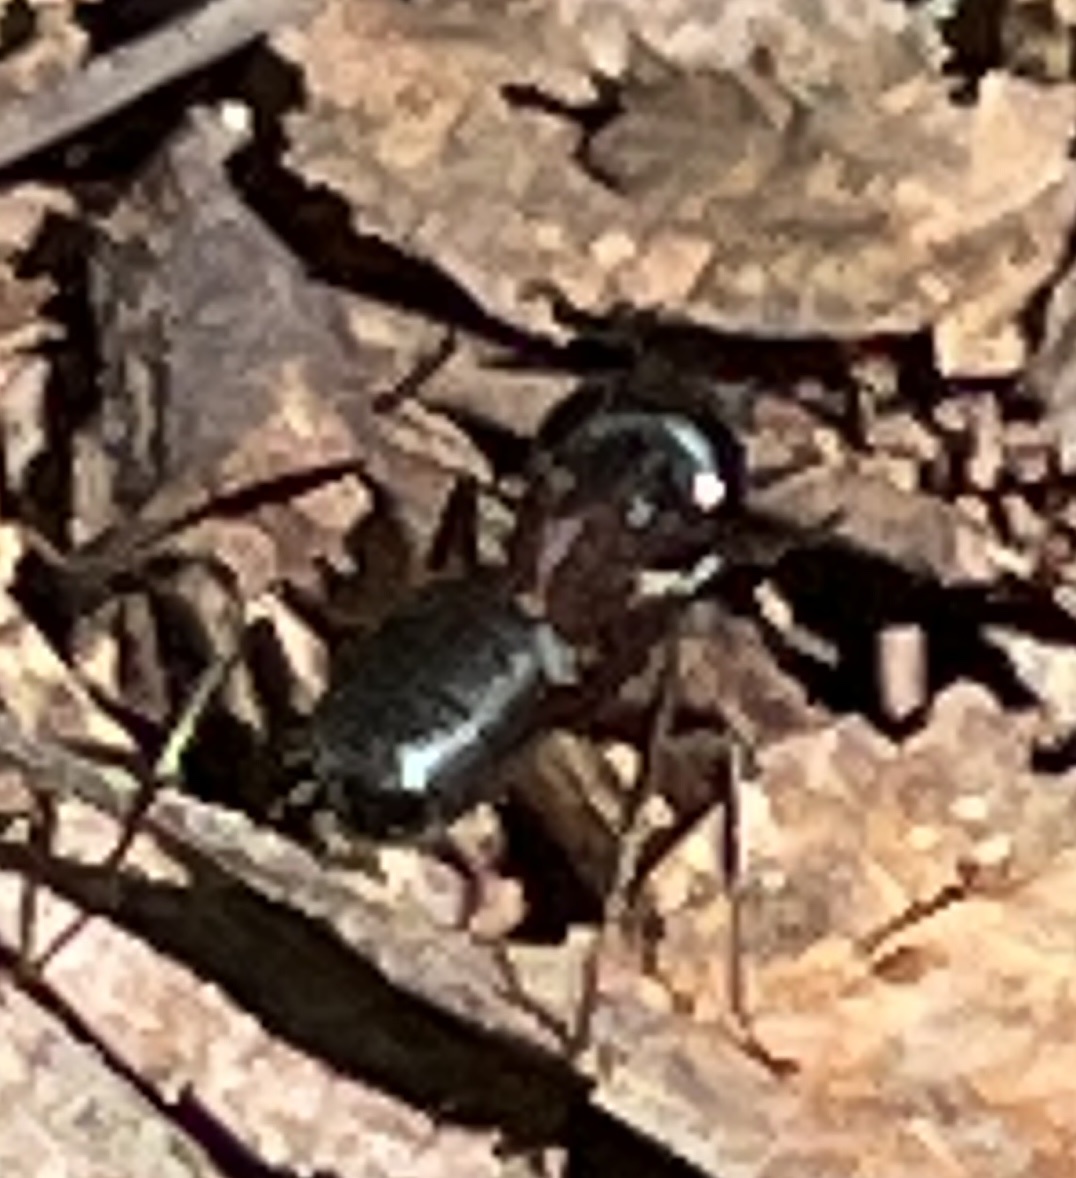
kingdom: Animalia
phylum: Arthropoda
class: Insecta
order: Hymenoptera
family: Formicidae
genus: Camponotus
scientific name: Camponotus herculeanus
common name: Hercules ant
